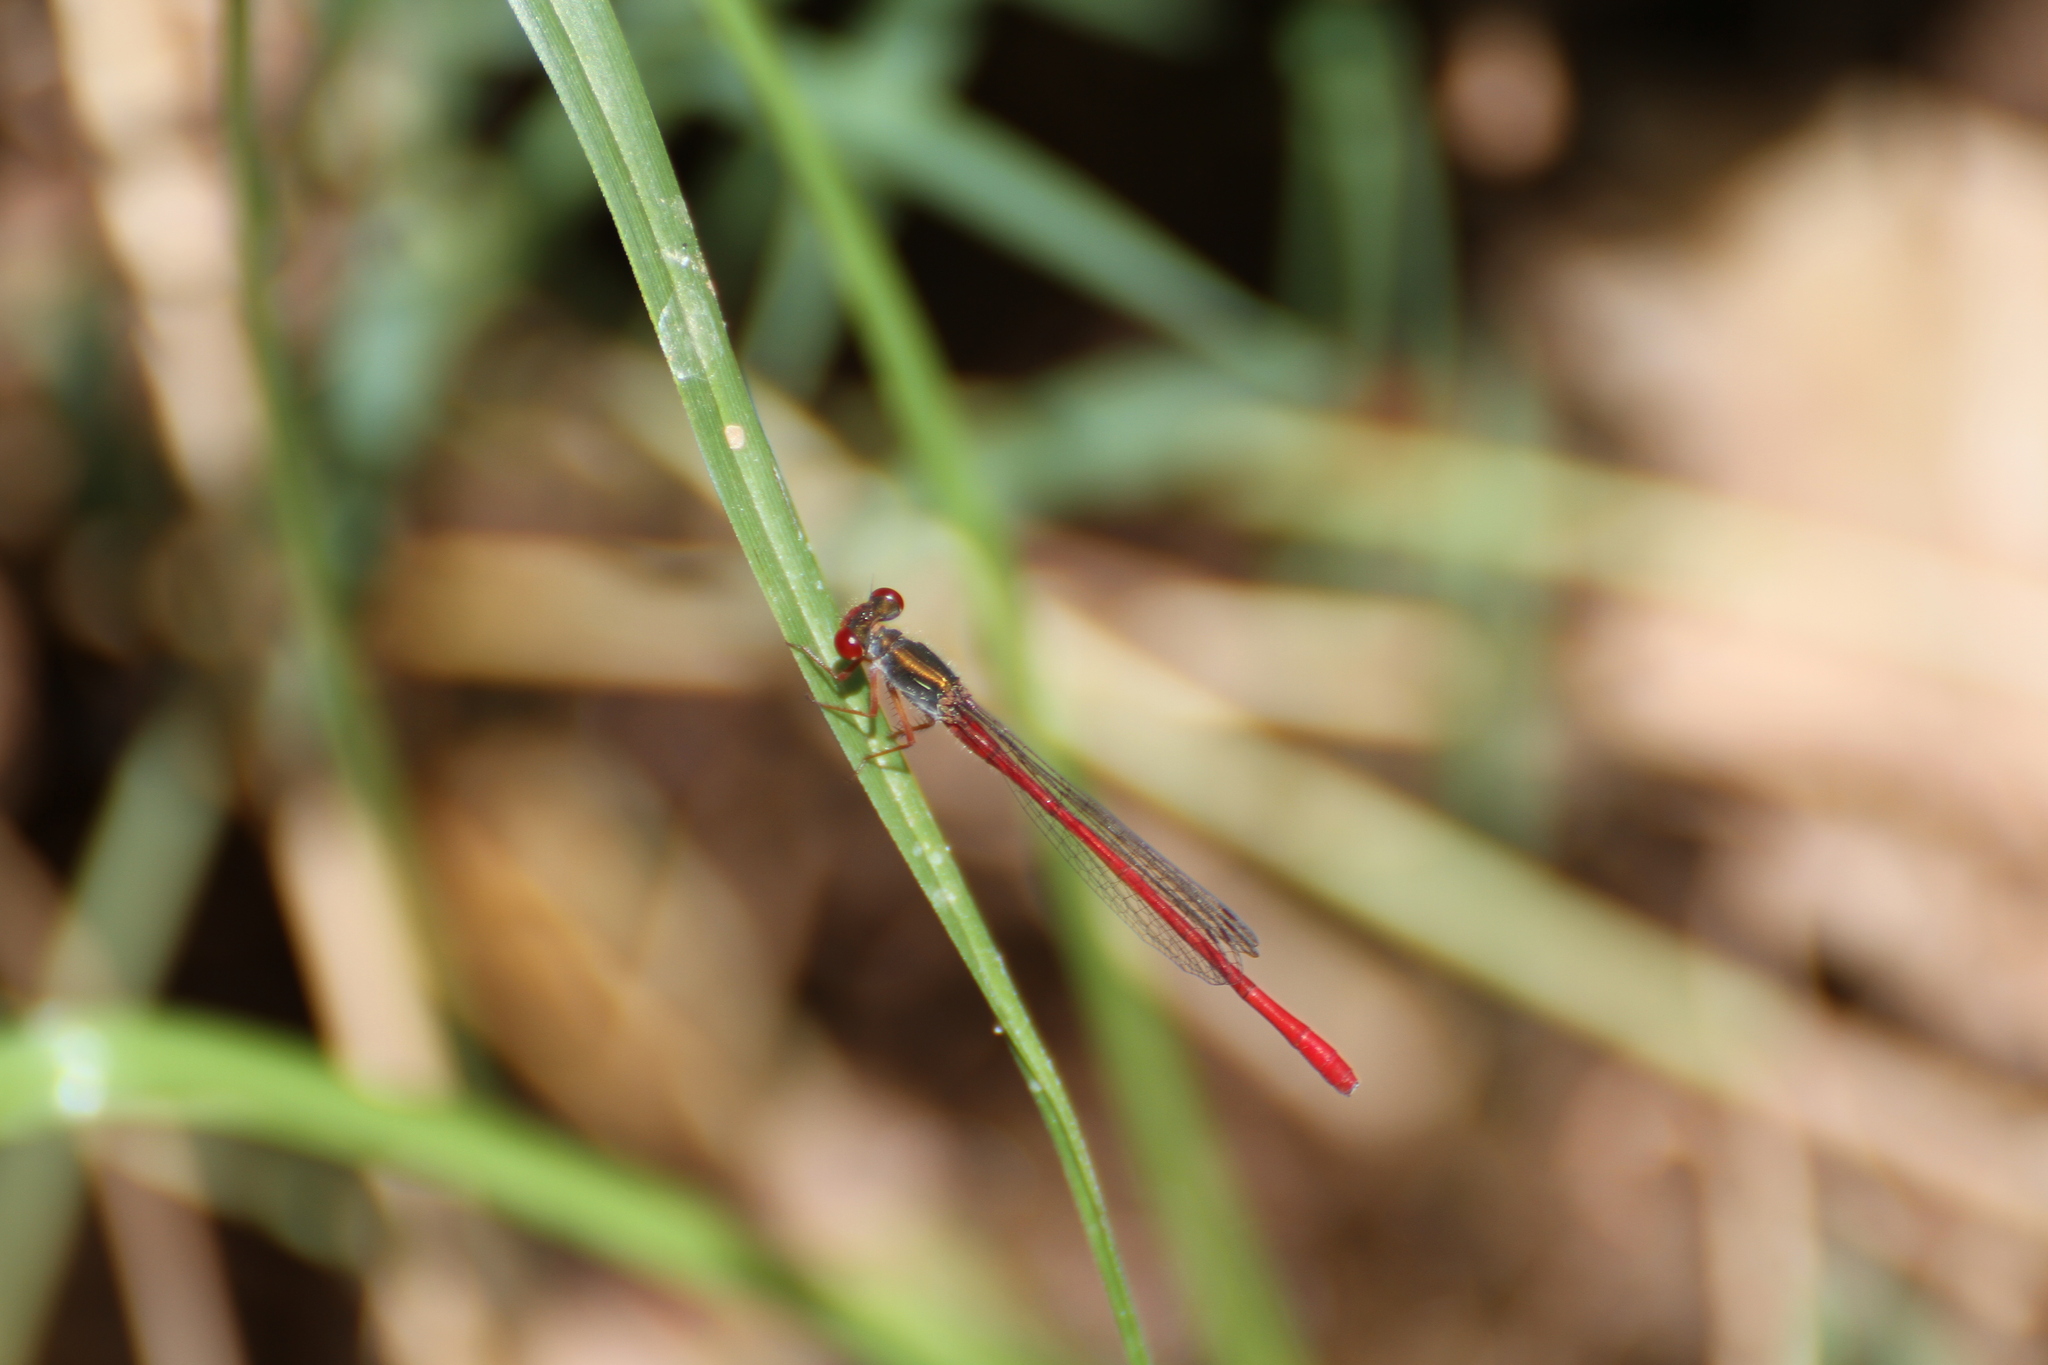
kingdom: Animalia
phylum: Arthropoda
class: Insecta
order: Odonata
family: Coenagrionidae
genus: Ceriagrion
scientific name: Ceriagrion tenellum
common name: Small red damselfly
